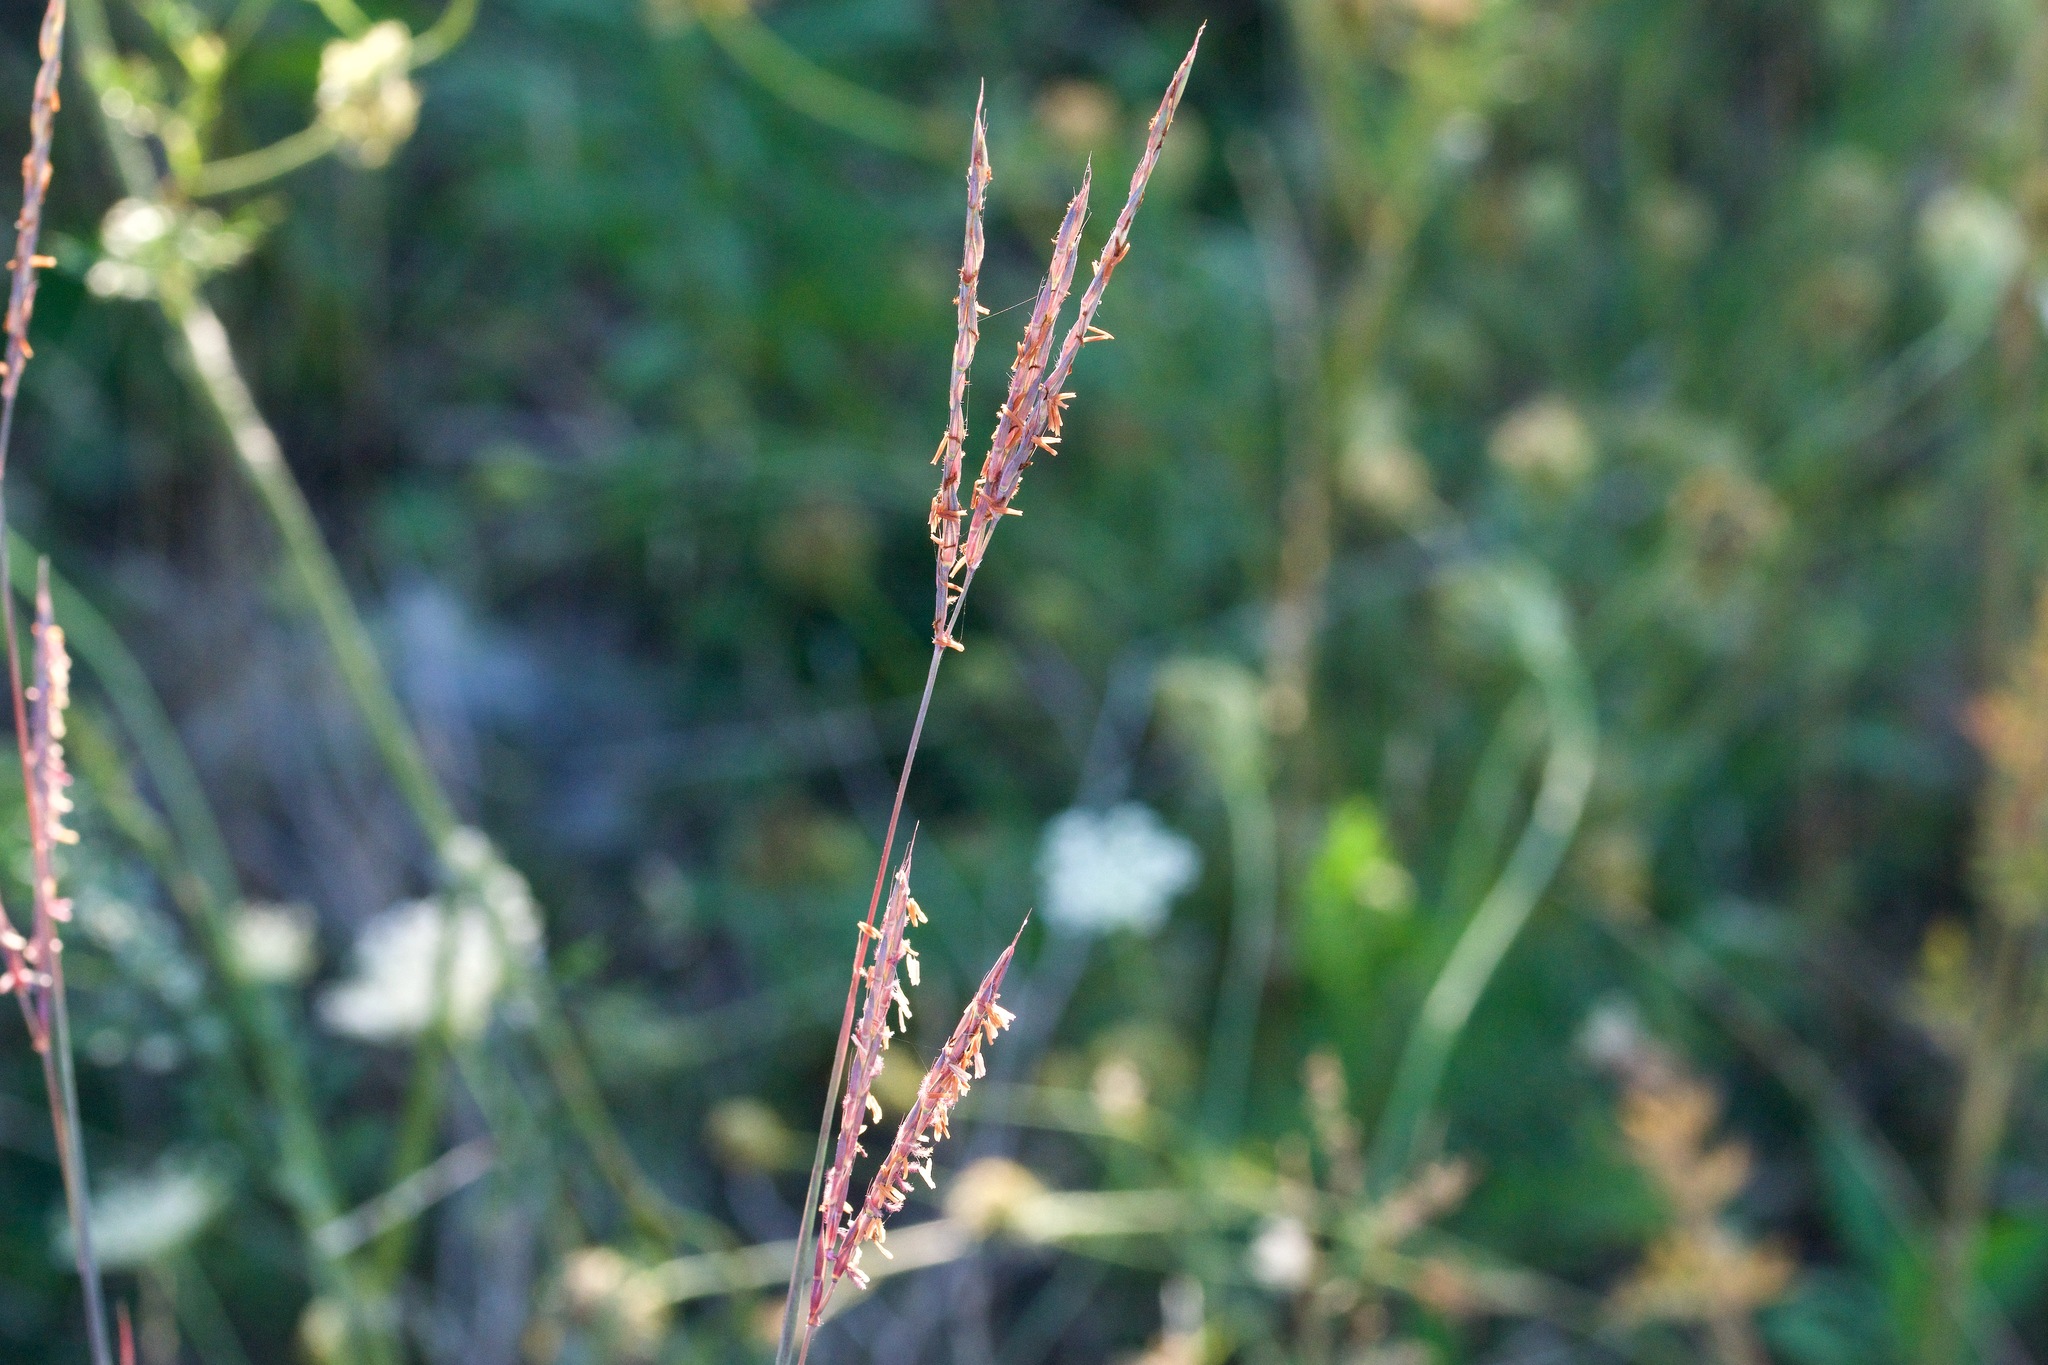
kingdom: Plantae
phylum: Tracheophyta
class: Liliopsida
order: Poales
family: Poaceae
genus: Andropogon
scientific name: Andropogon gerardi
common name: Big bluestem
